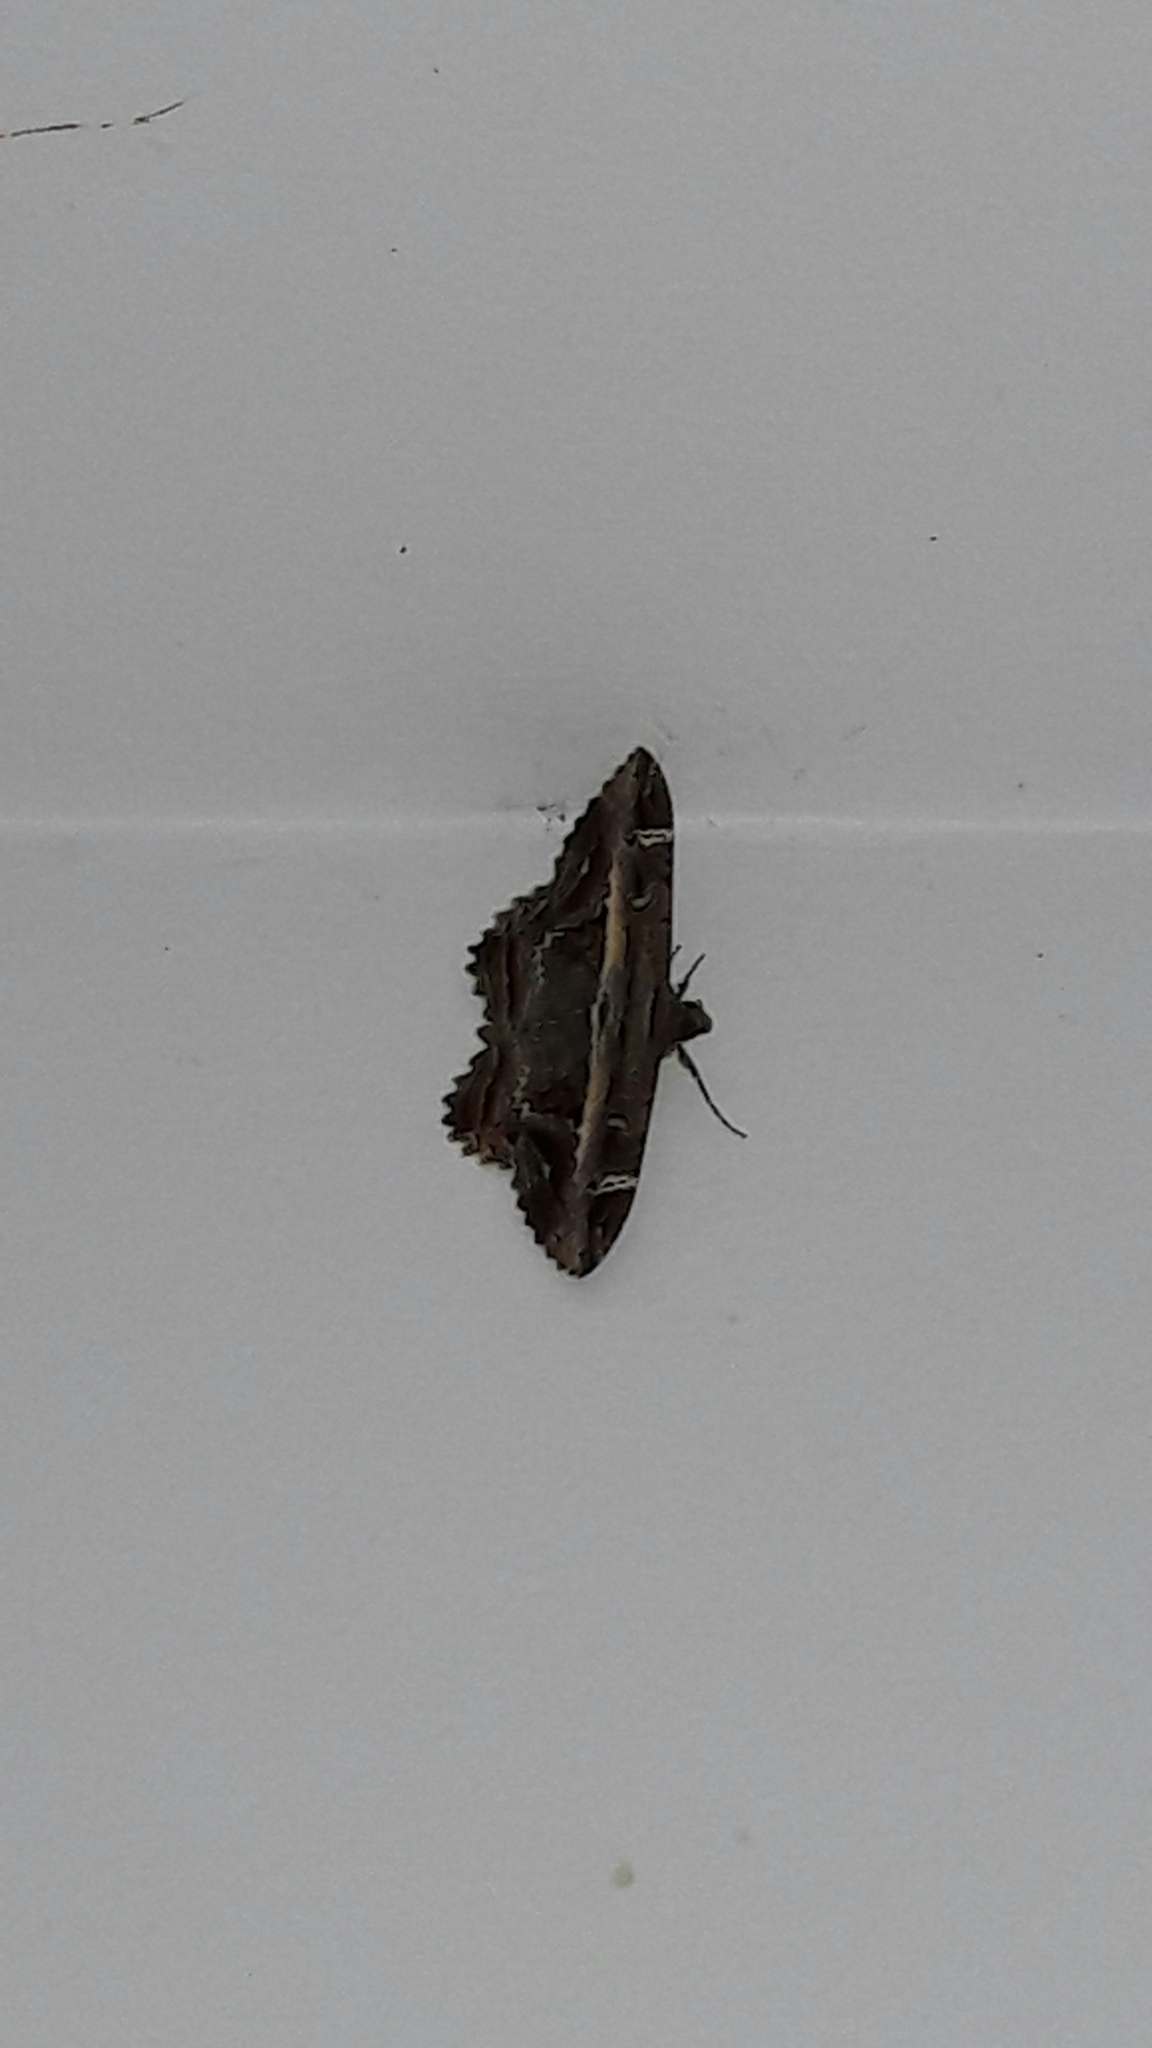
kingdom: Animalia
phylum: Arthropoda
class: Insecta
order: Lepidoptera
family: Noctuidae
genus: Ronania
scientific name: Ronania
